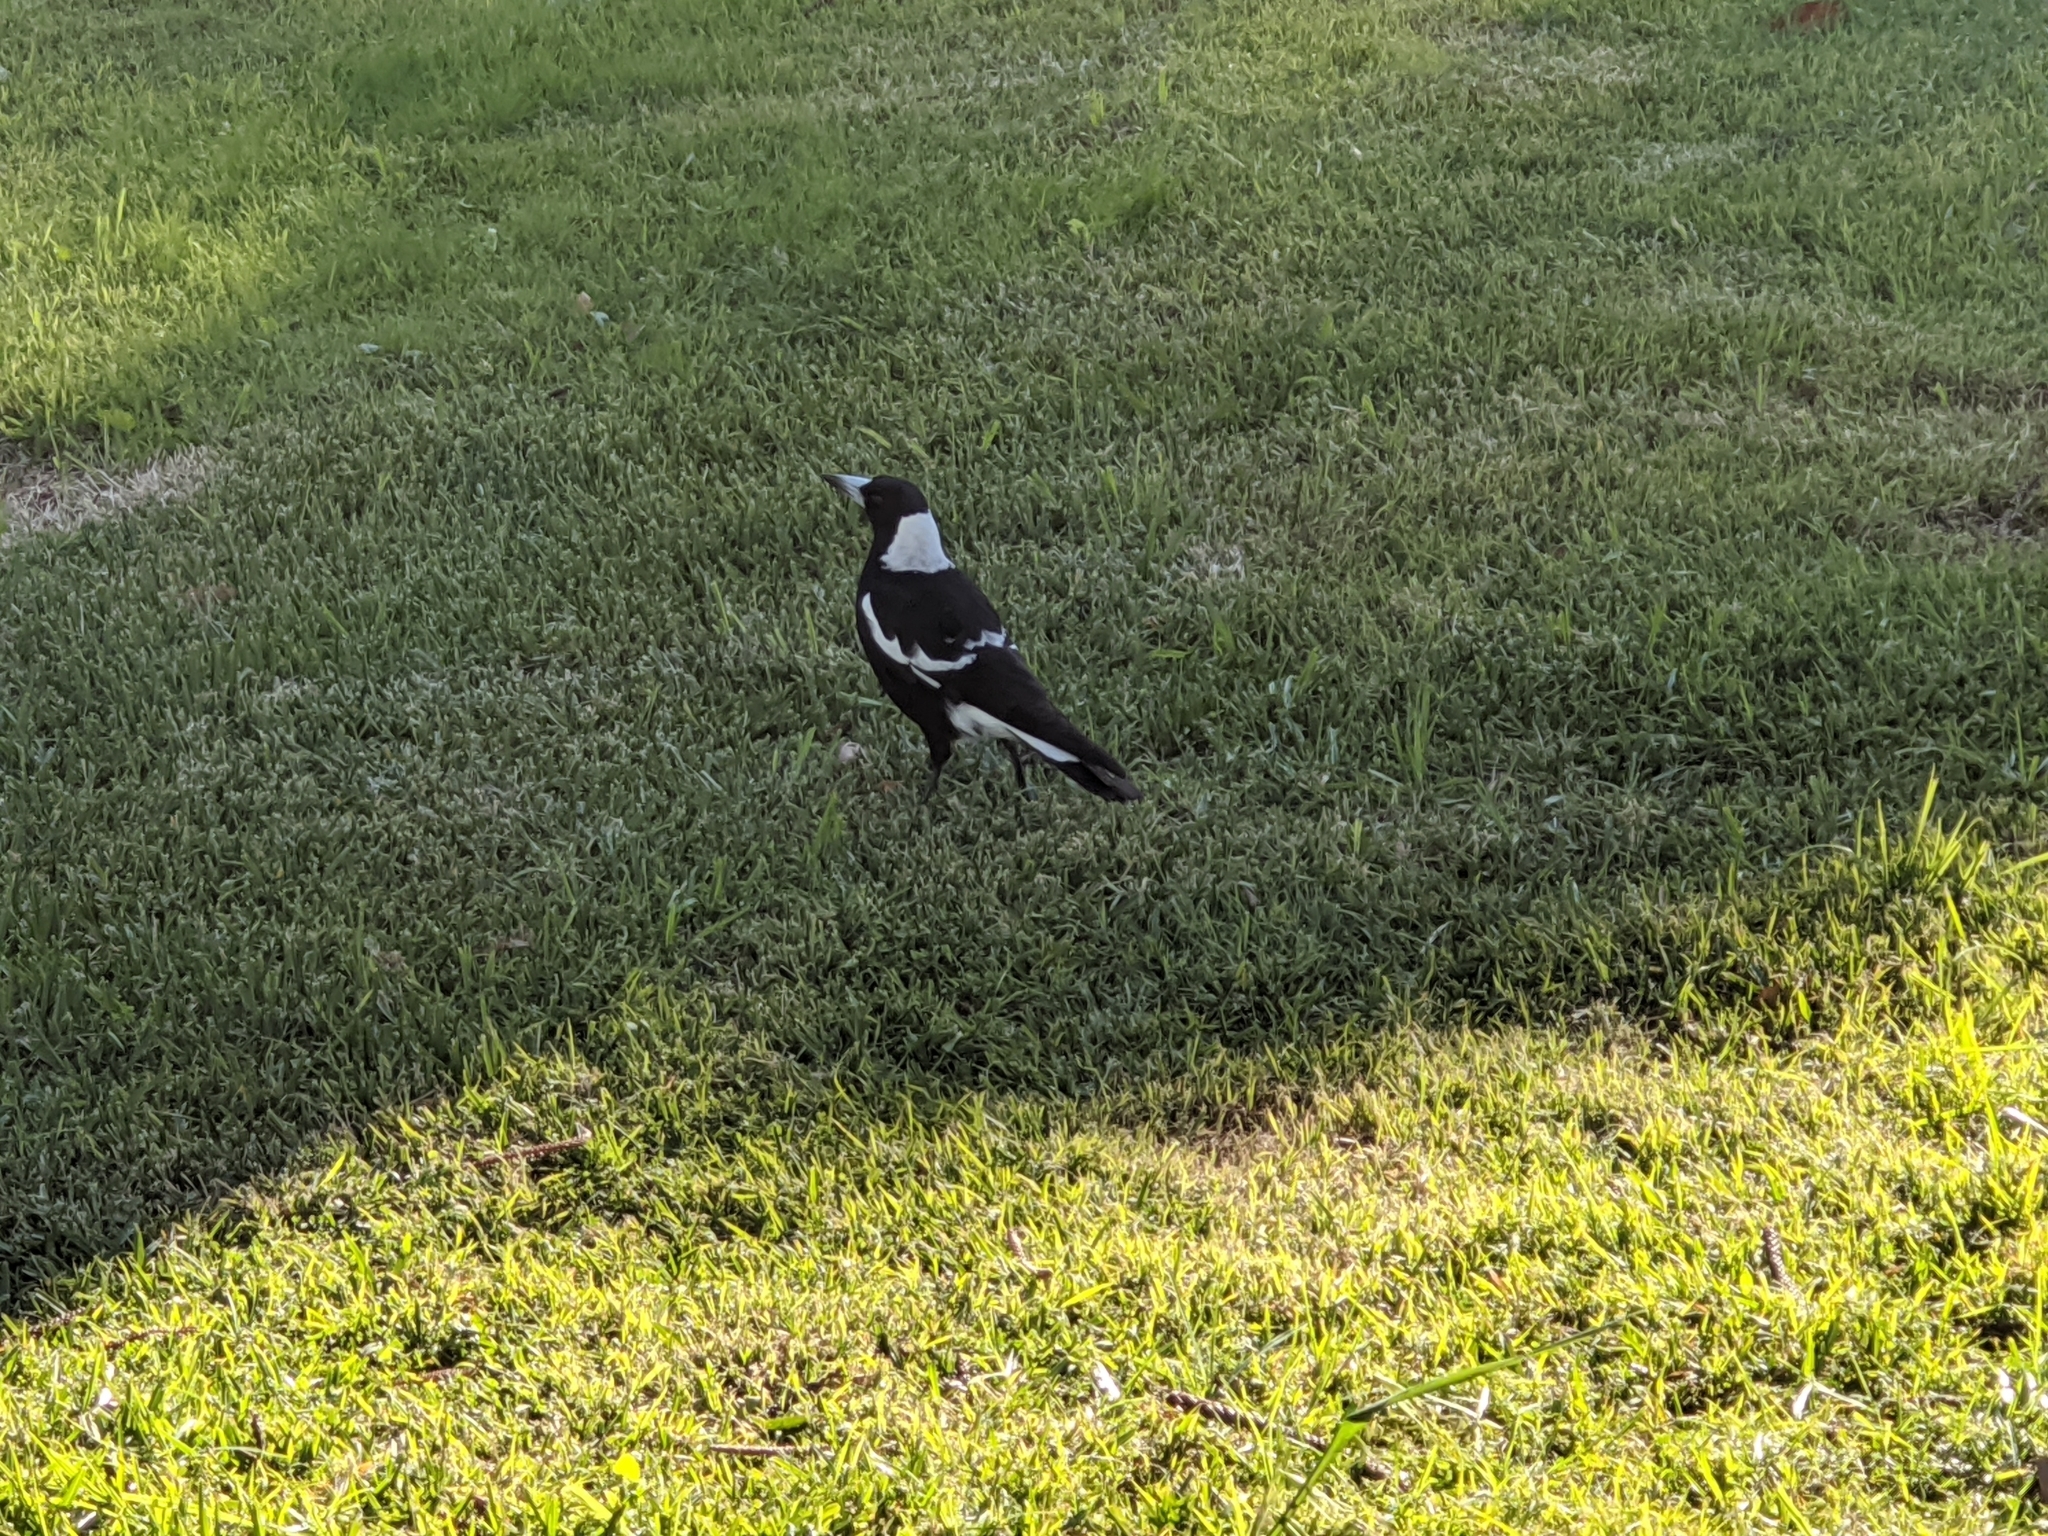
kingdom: Animalia
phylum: Chordata
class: Aves
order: Passeriformes
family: Cracticidae
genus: Gymnorhina
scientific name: Gymnorhina tibicen
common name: Australian magpie
